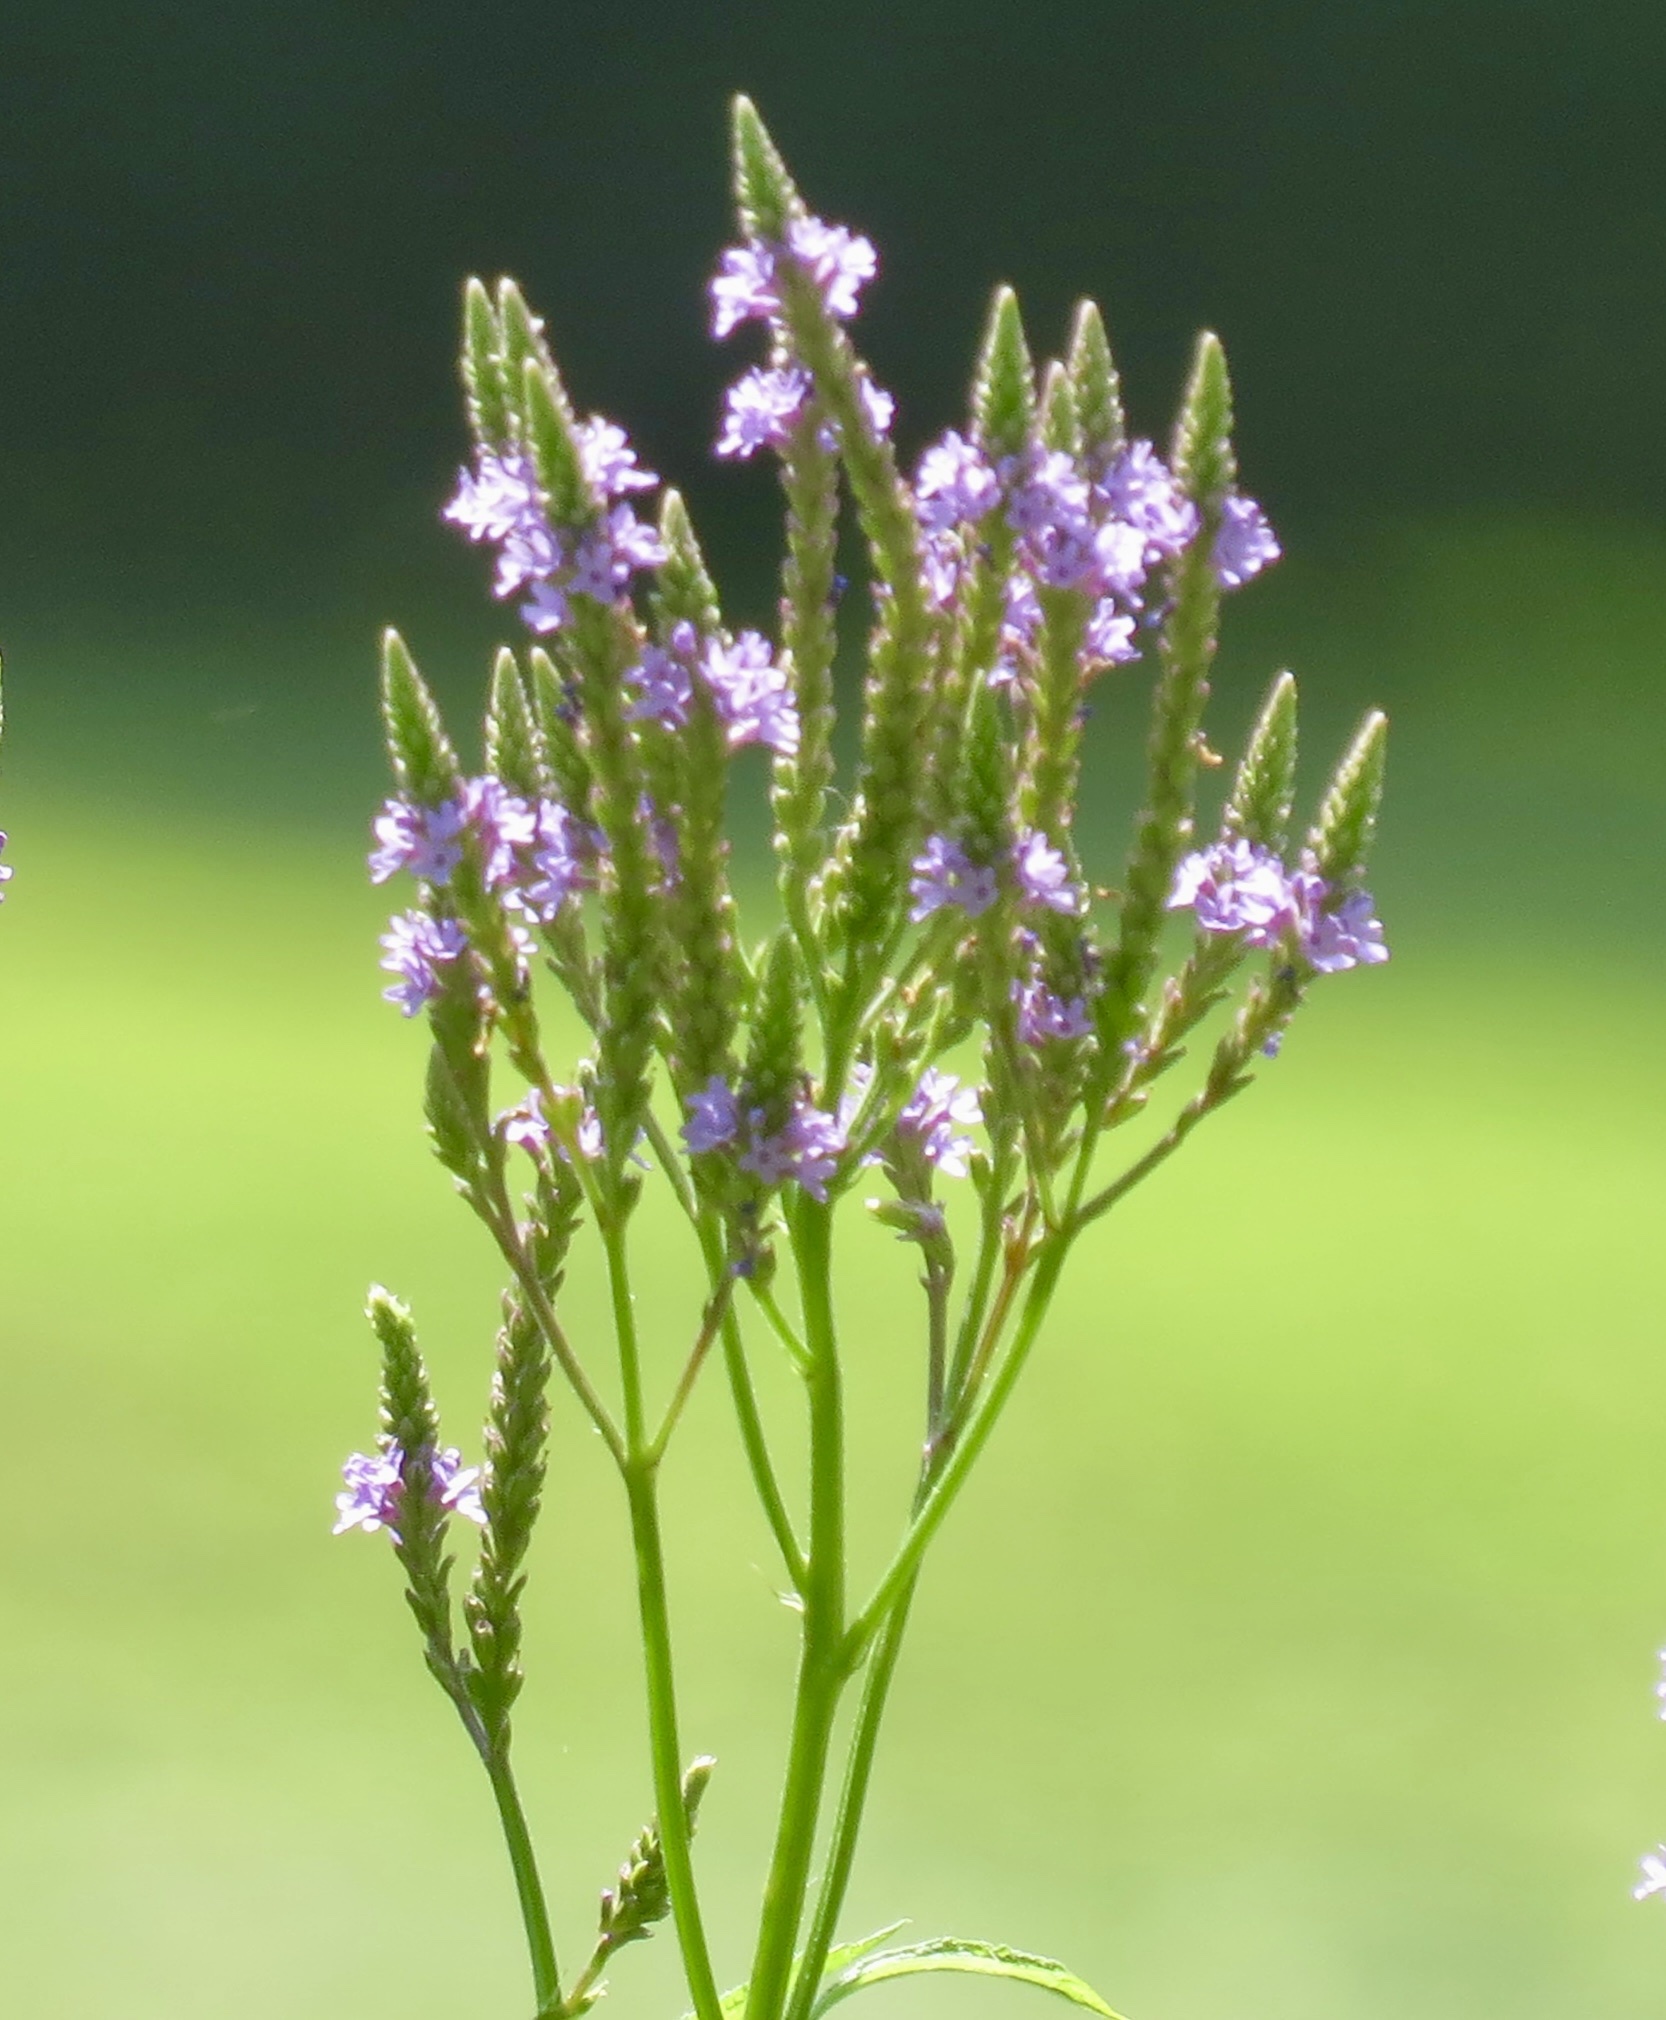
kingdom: Plantae
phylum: Tracheophyta
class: Magnoliopsida
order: Lamiales
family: Verbenaceae
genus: Verbena
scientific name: Verbena hastata
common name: American blue vervain
